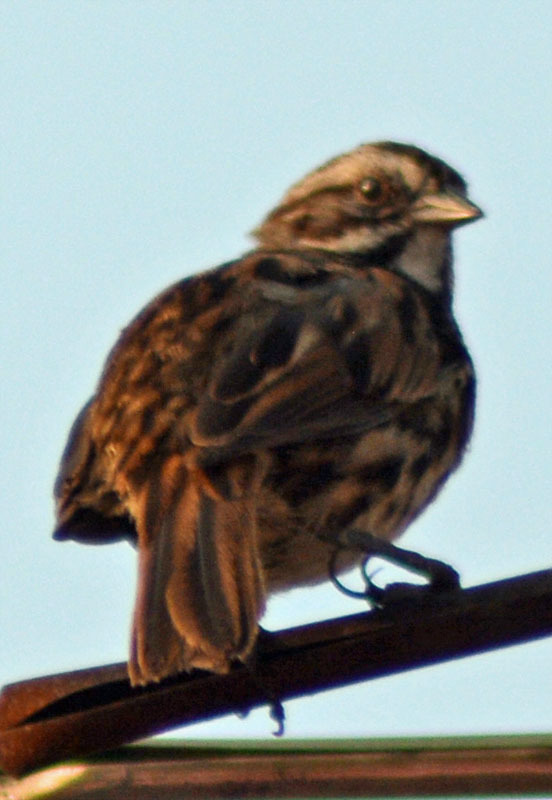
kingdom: Animalia
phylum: Chordata
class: Aves
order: Passeriformes
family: Passerellidae
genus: Melospiza
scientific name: Melospiza melodia
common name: Song sparrow
